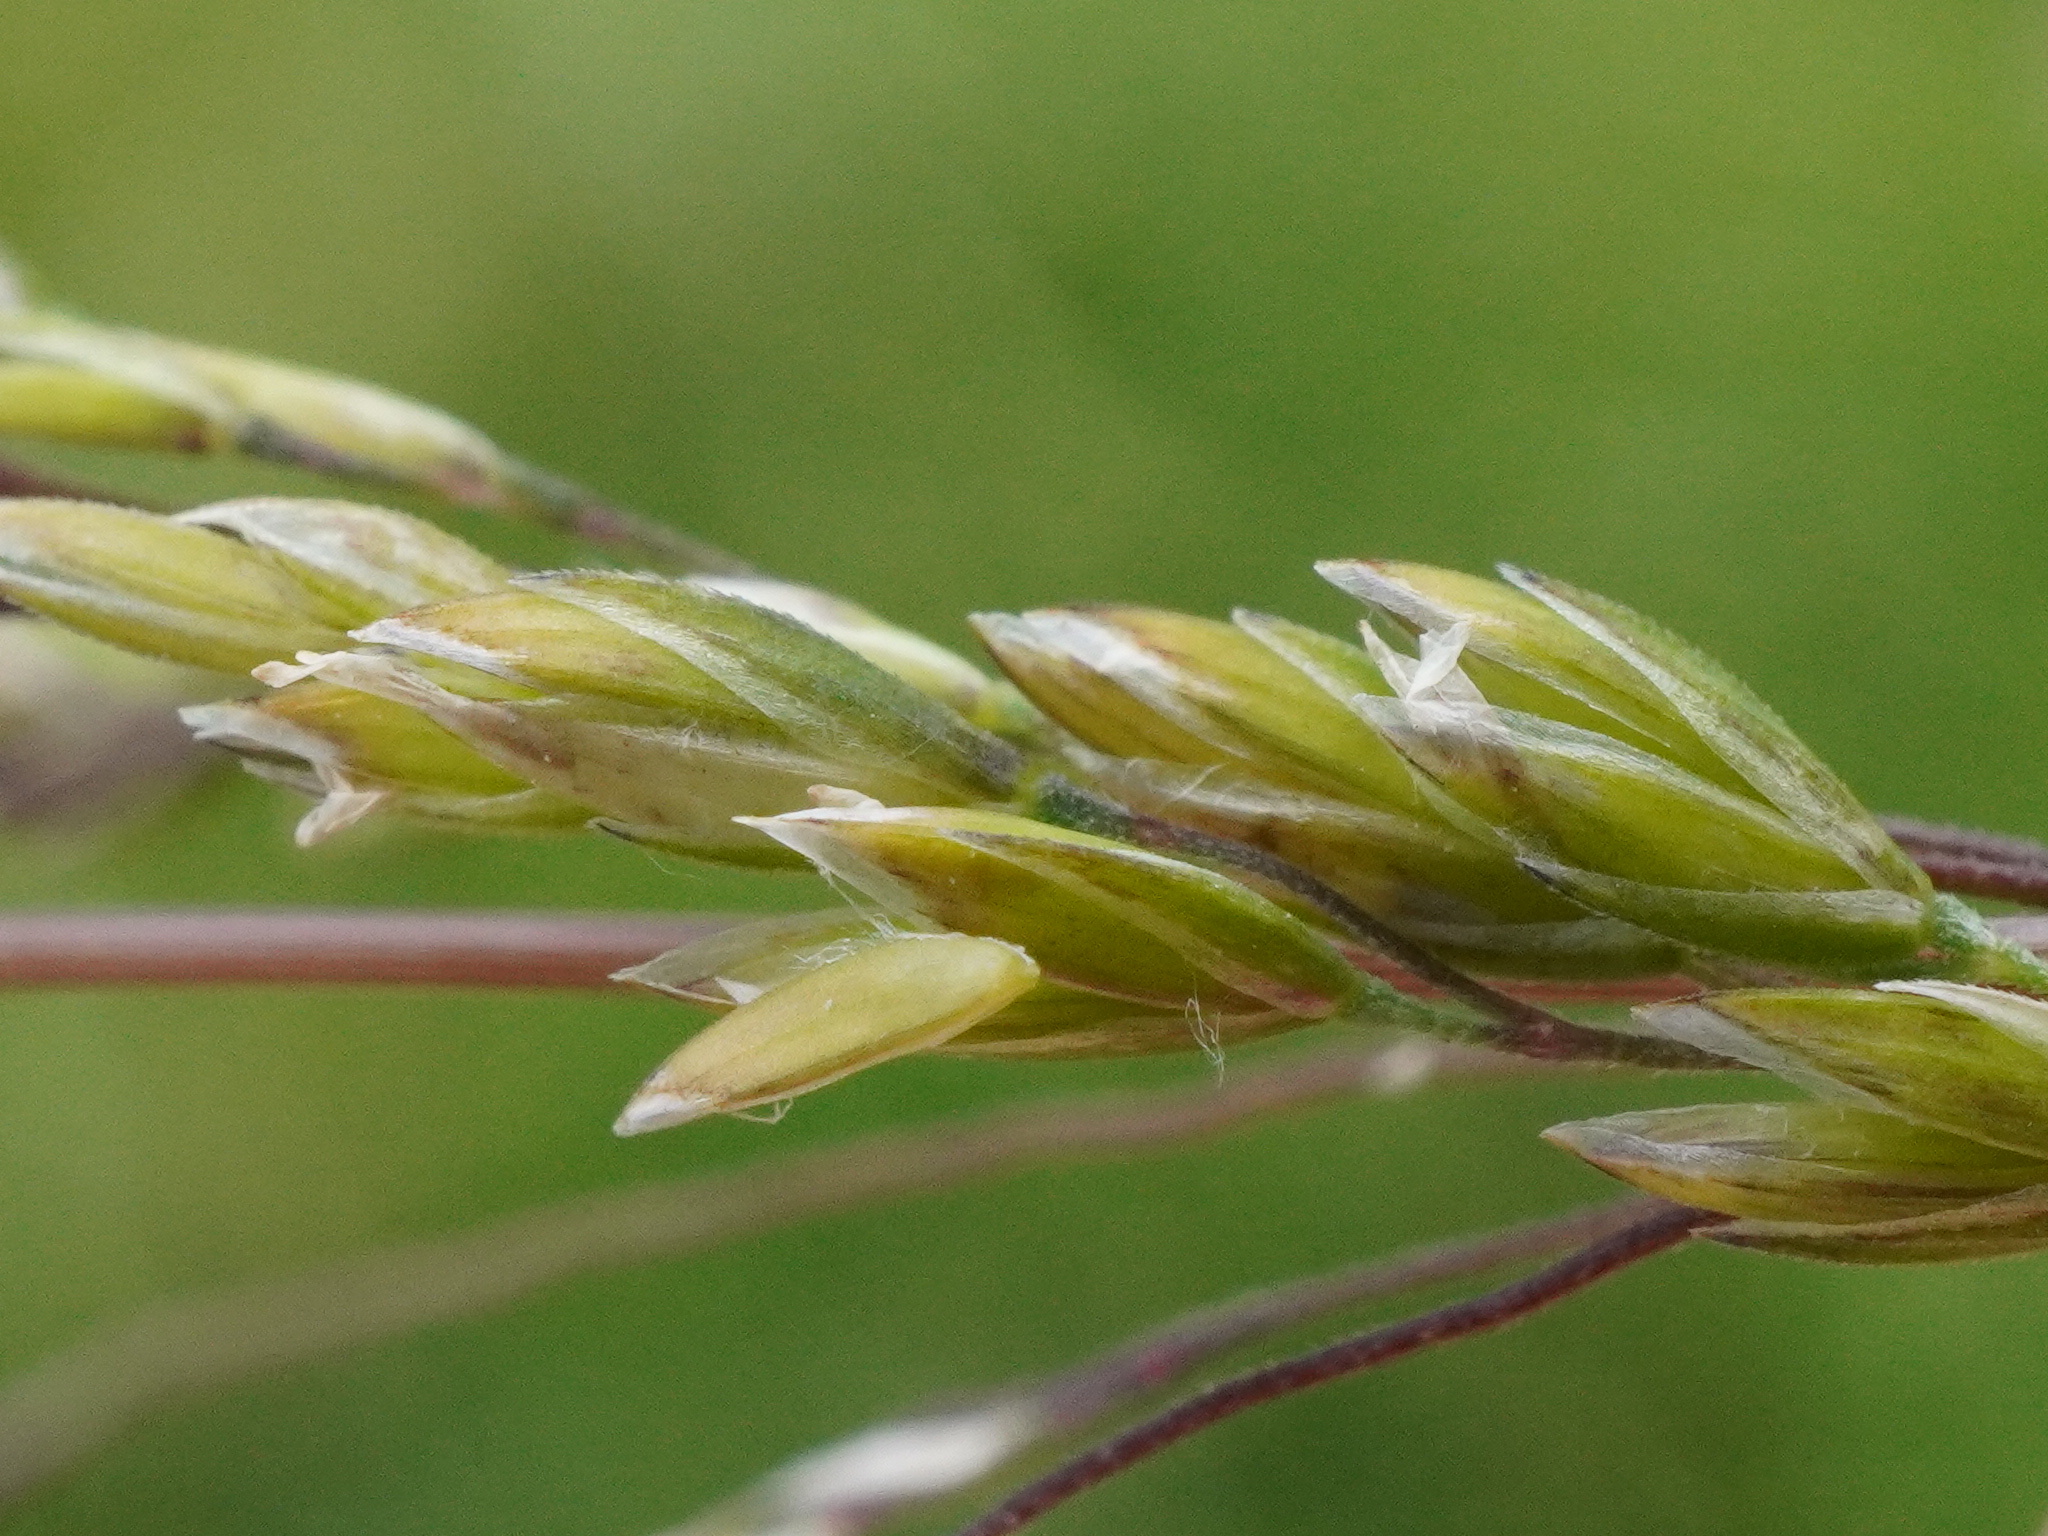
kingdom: Plantae
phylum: Tracheophyta
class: Liliopsida
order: Poales
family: Poaceae
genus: Poa
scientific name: Poa trivialis
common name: Rough bluegrass
